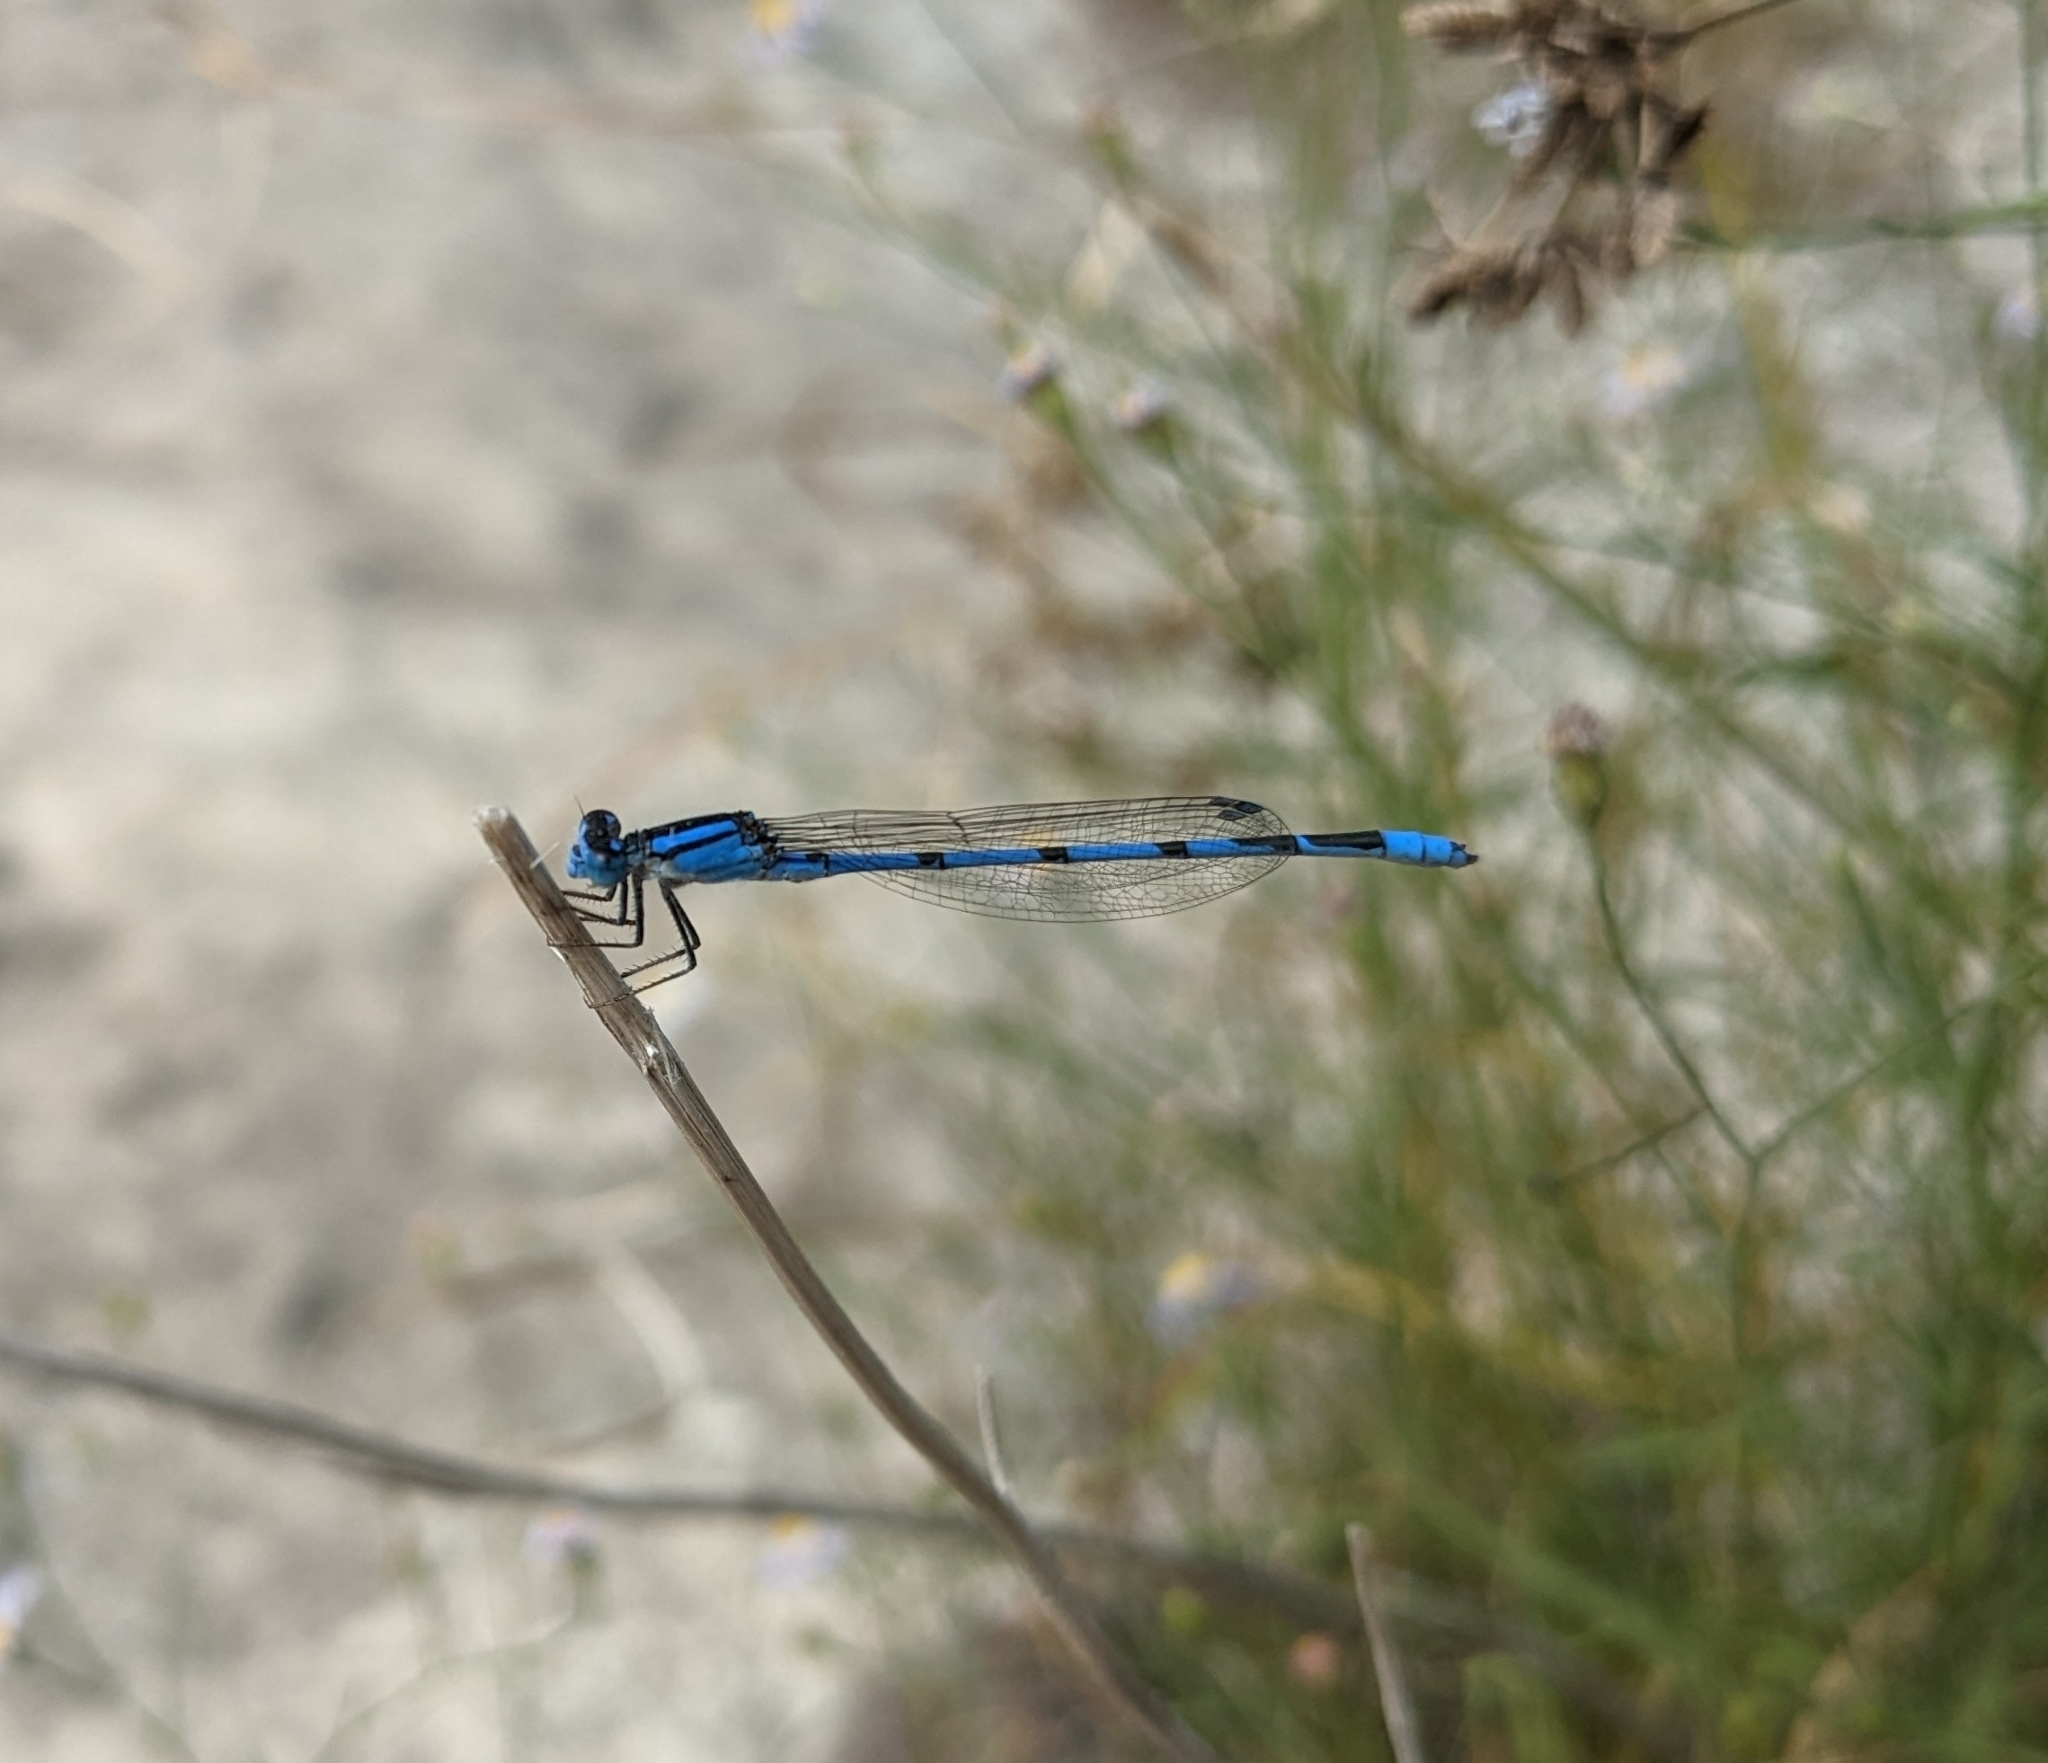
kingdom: Animalia
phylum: Arthropoda
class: Insecta
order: Odonata
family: Coenagrionidae
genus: Enallagma
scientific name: Enallagma civile
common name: Damselfly
